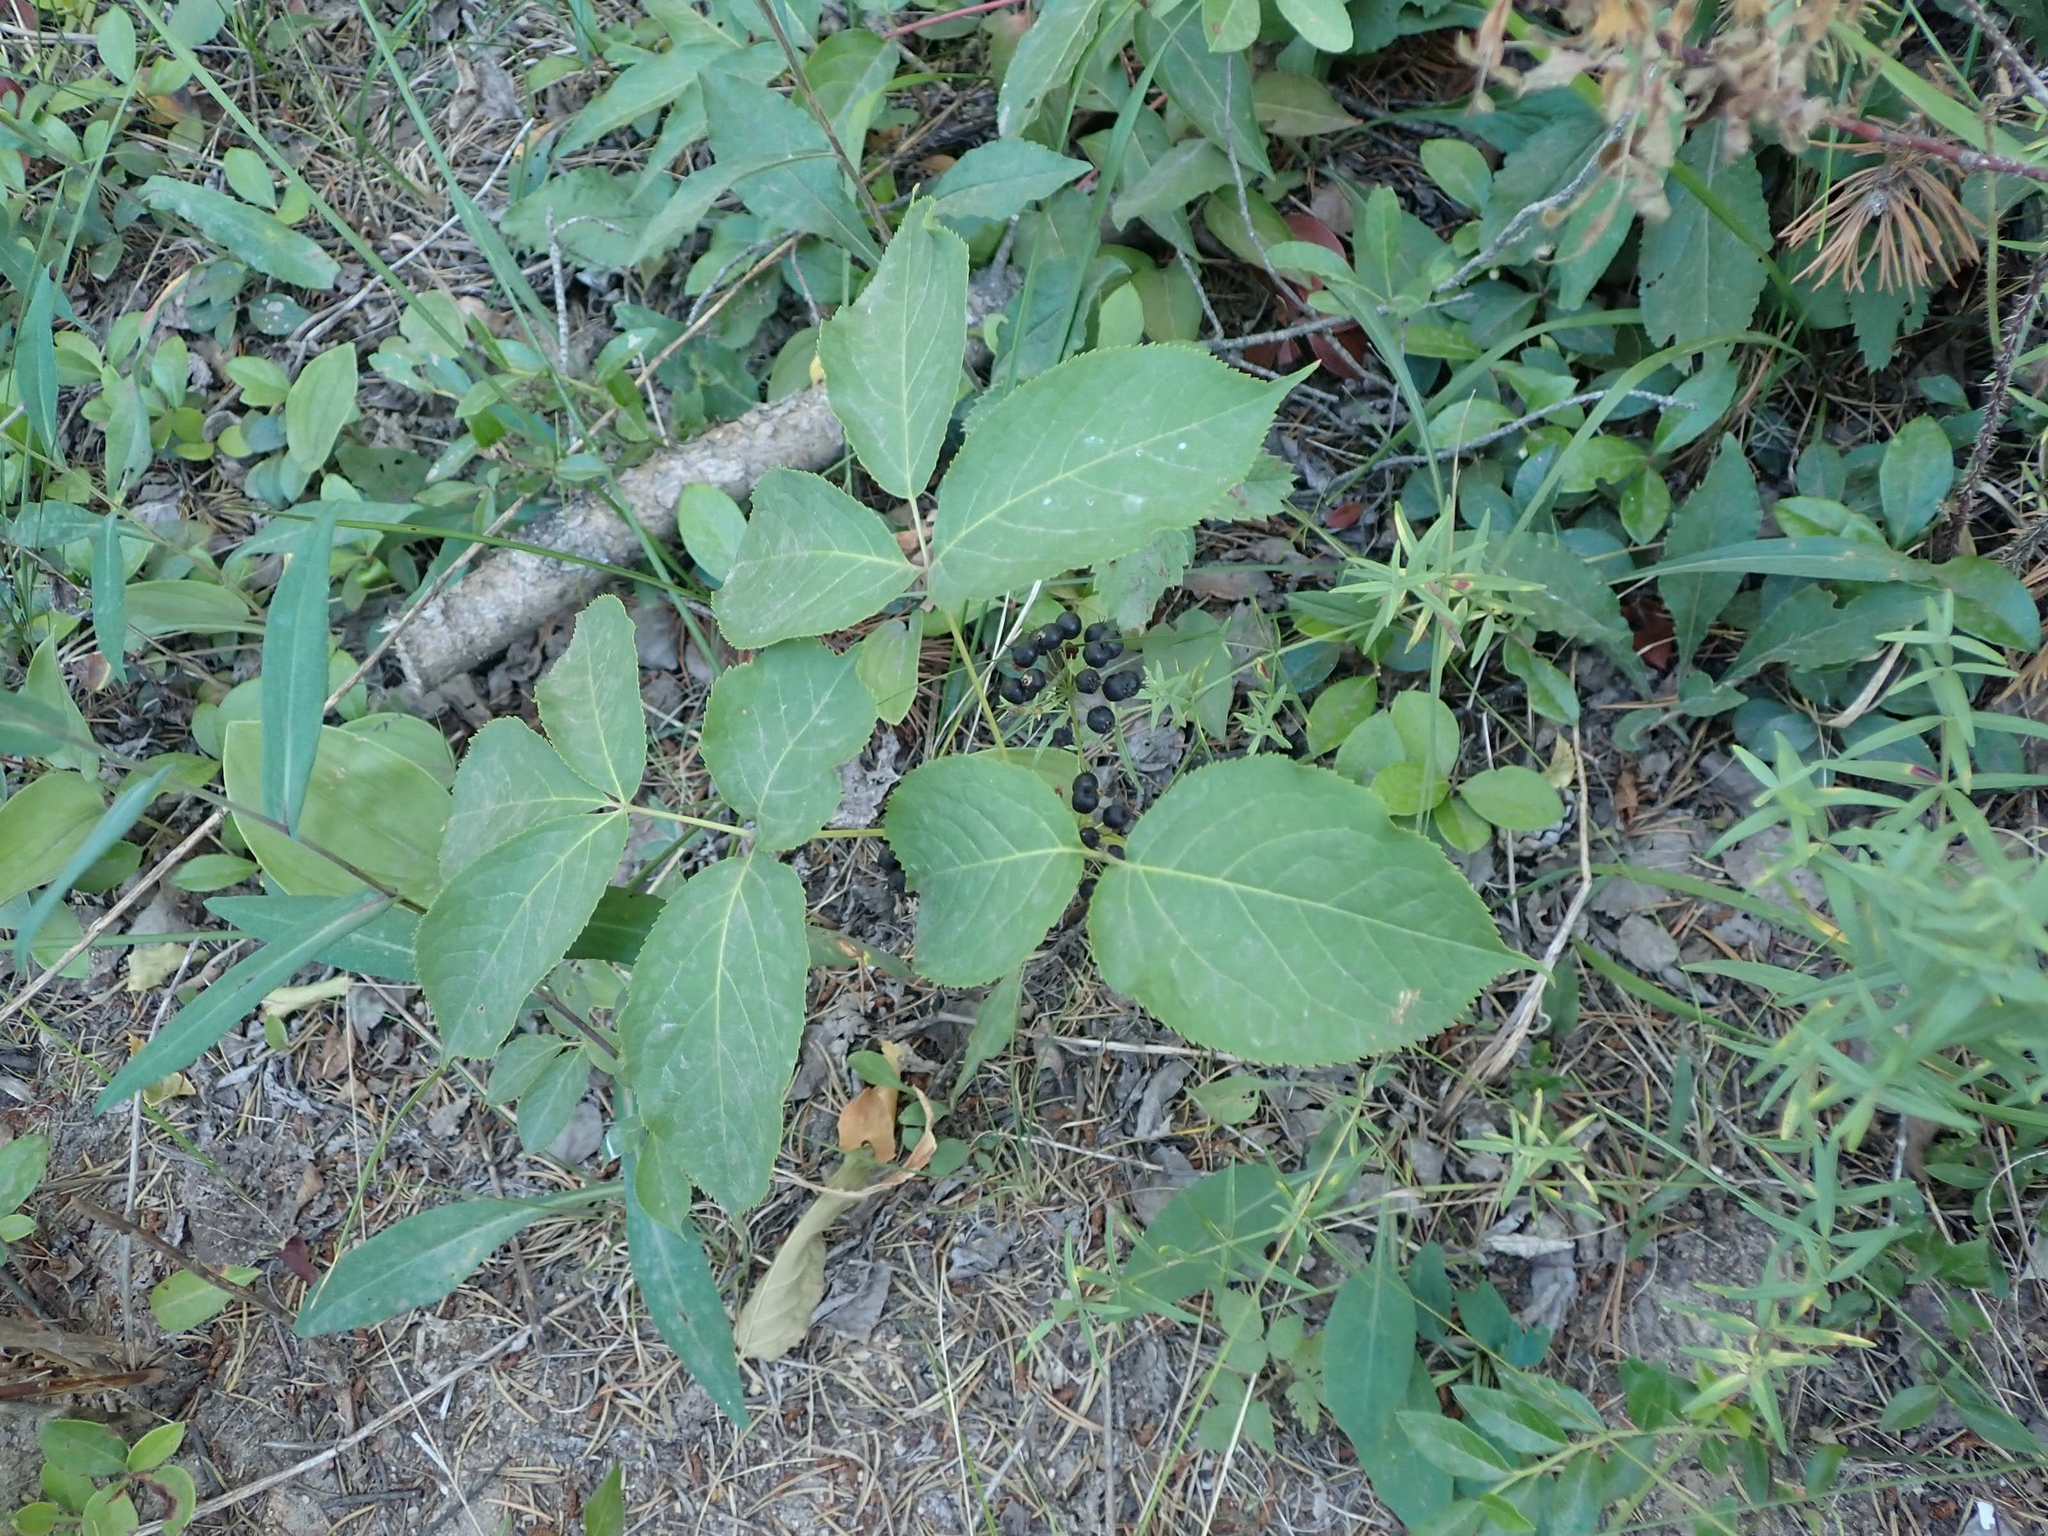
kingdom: Plantae
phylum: Tracheophyta
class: Magnoliopsida
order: Apiales
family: Araliaceae
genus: Aralia
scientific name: Aralia nudicaulis
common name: Wild sarsaparilla
